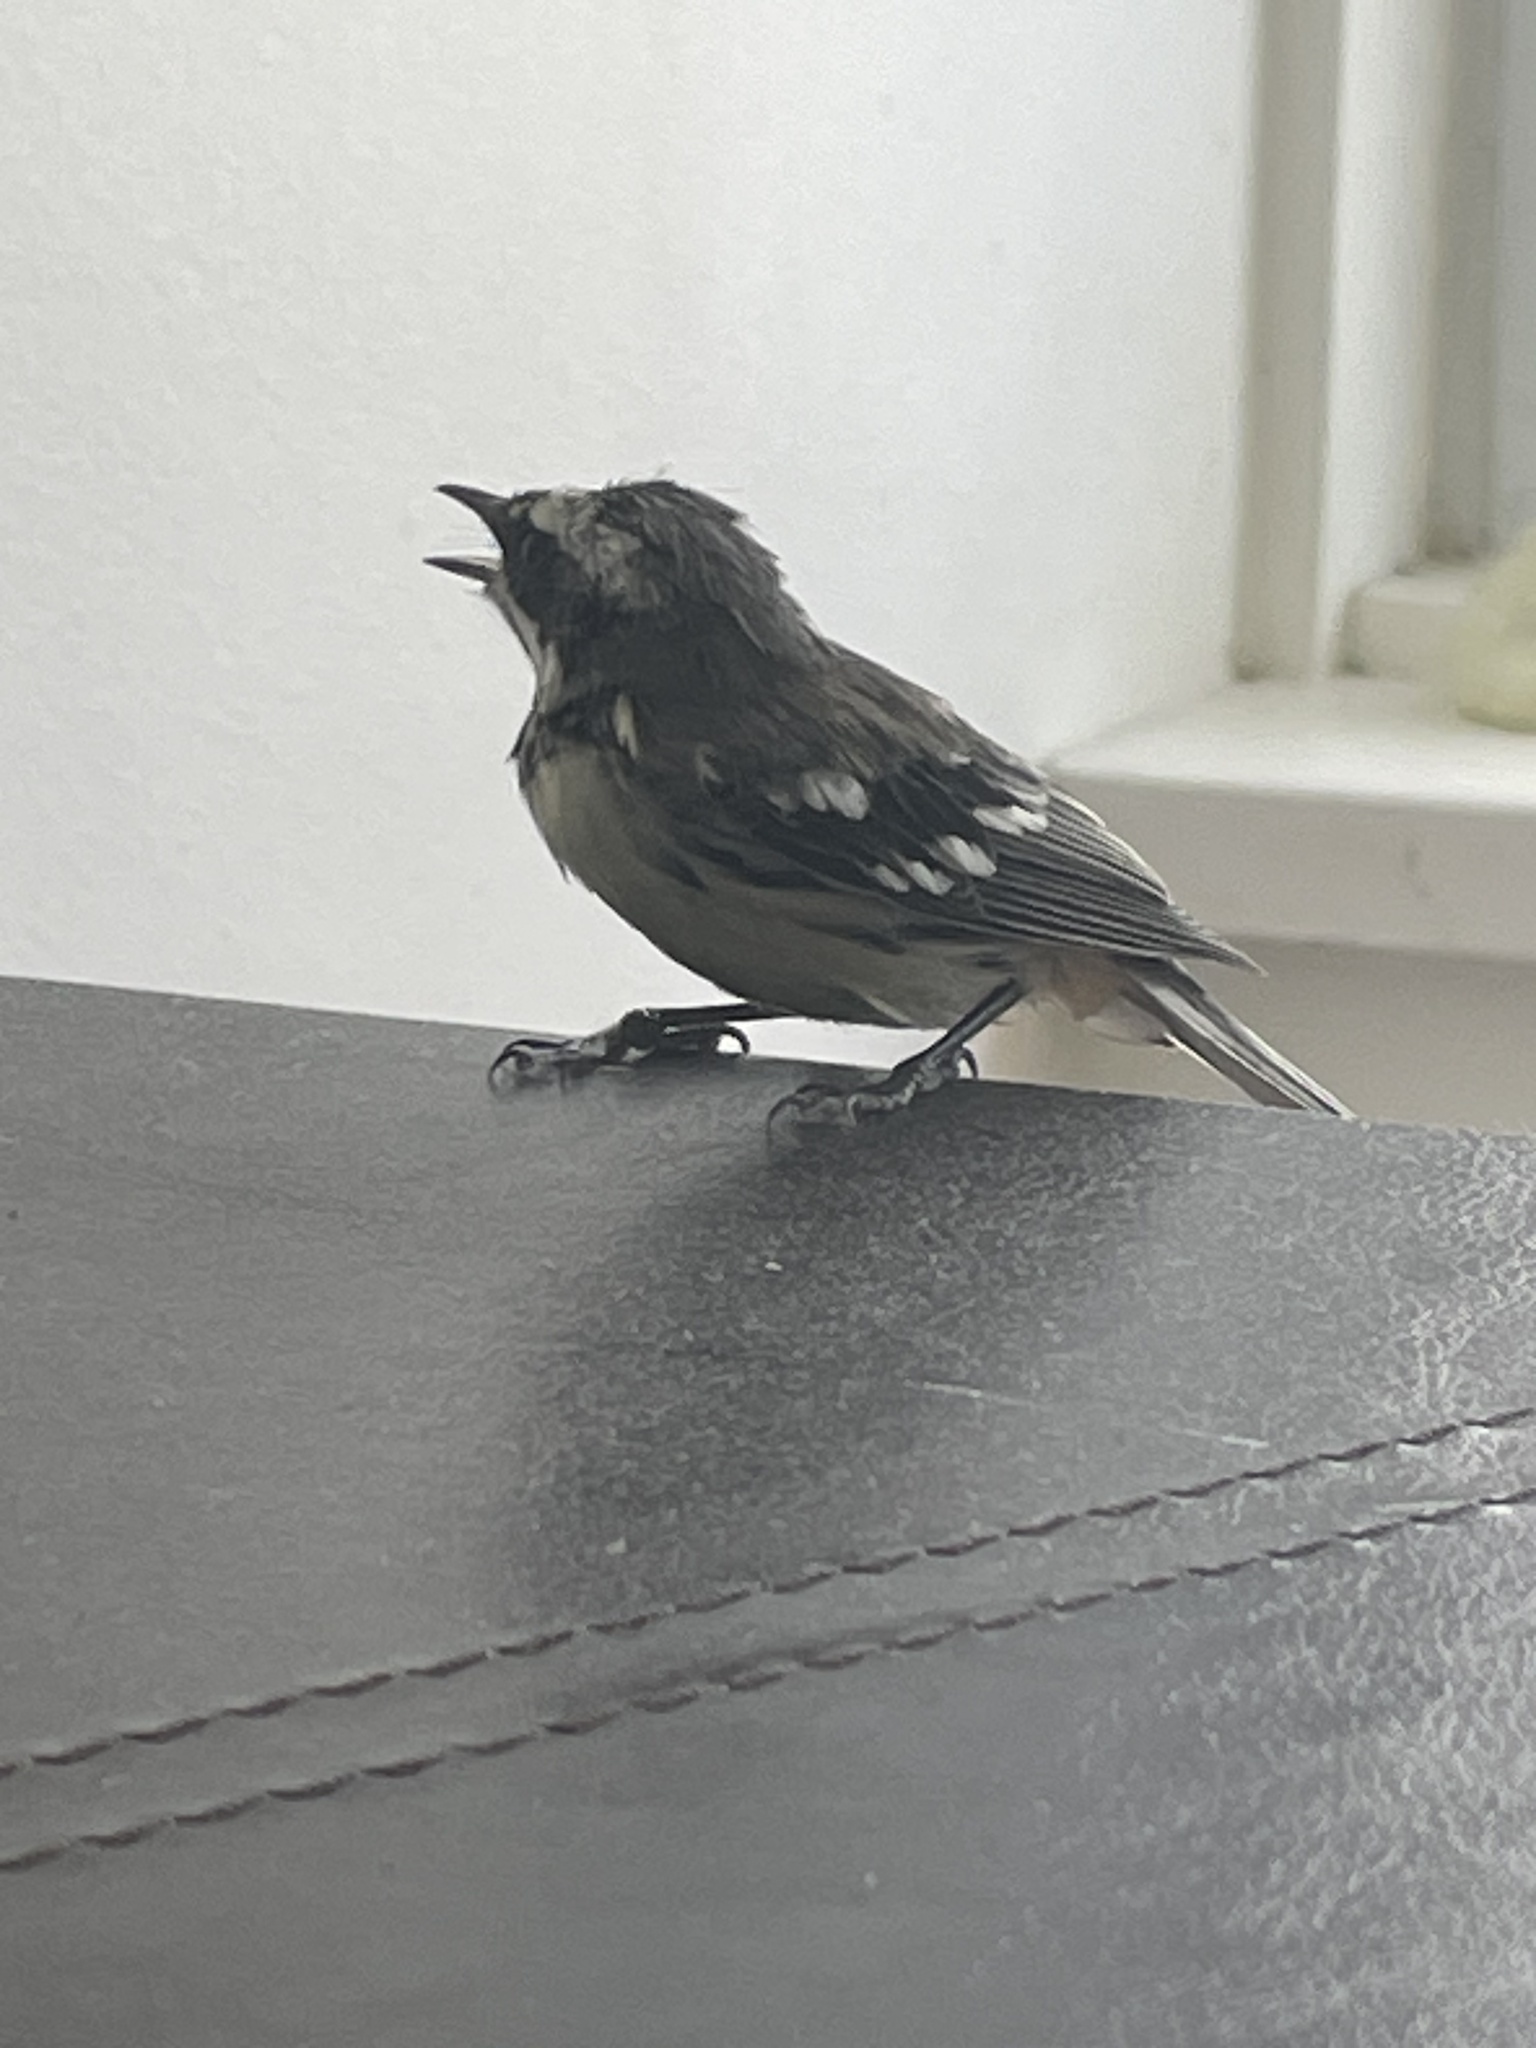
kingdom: Animalia
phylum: Chordata
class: Aves
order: Passeriformes
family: Parulidae
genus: Setophaga
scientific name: Setophaga nigrescens
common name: Black-throated gray warbler
